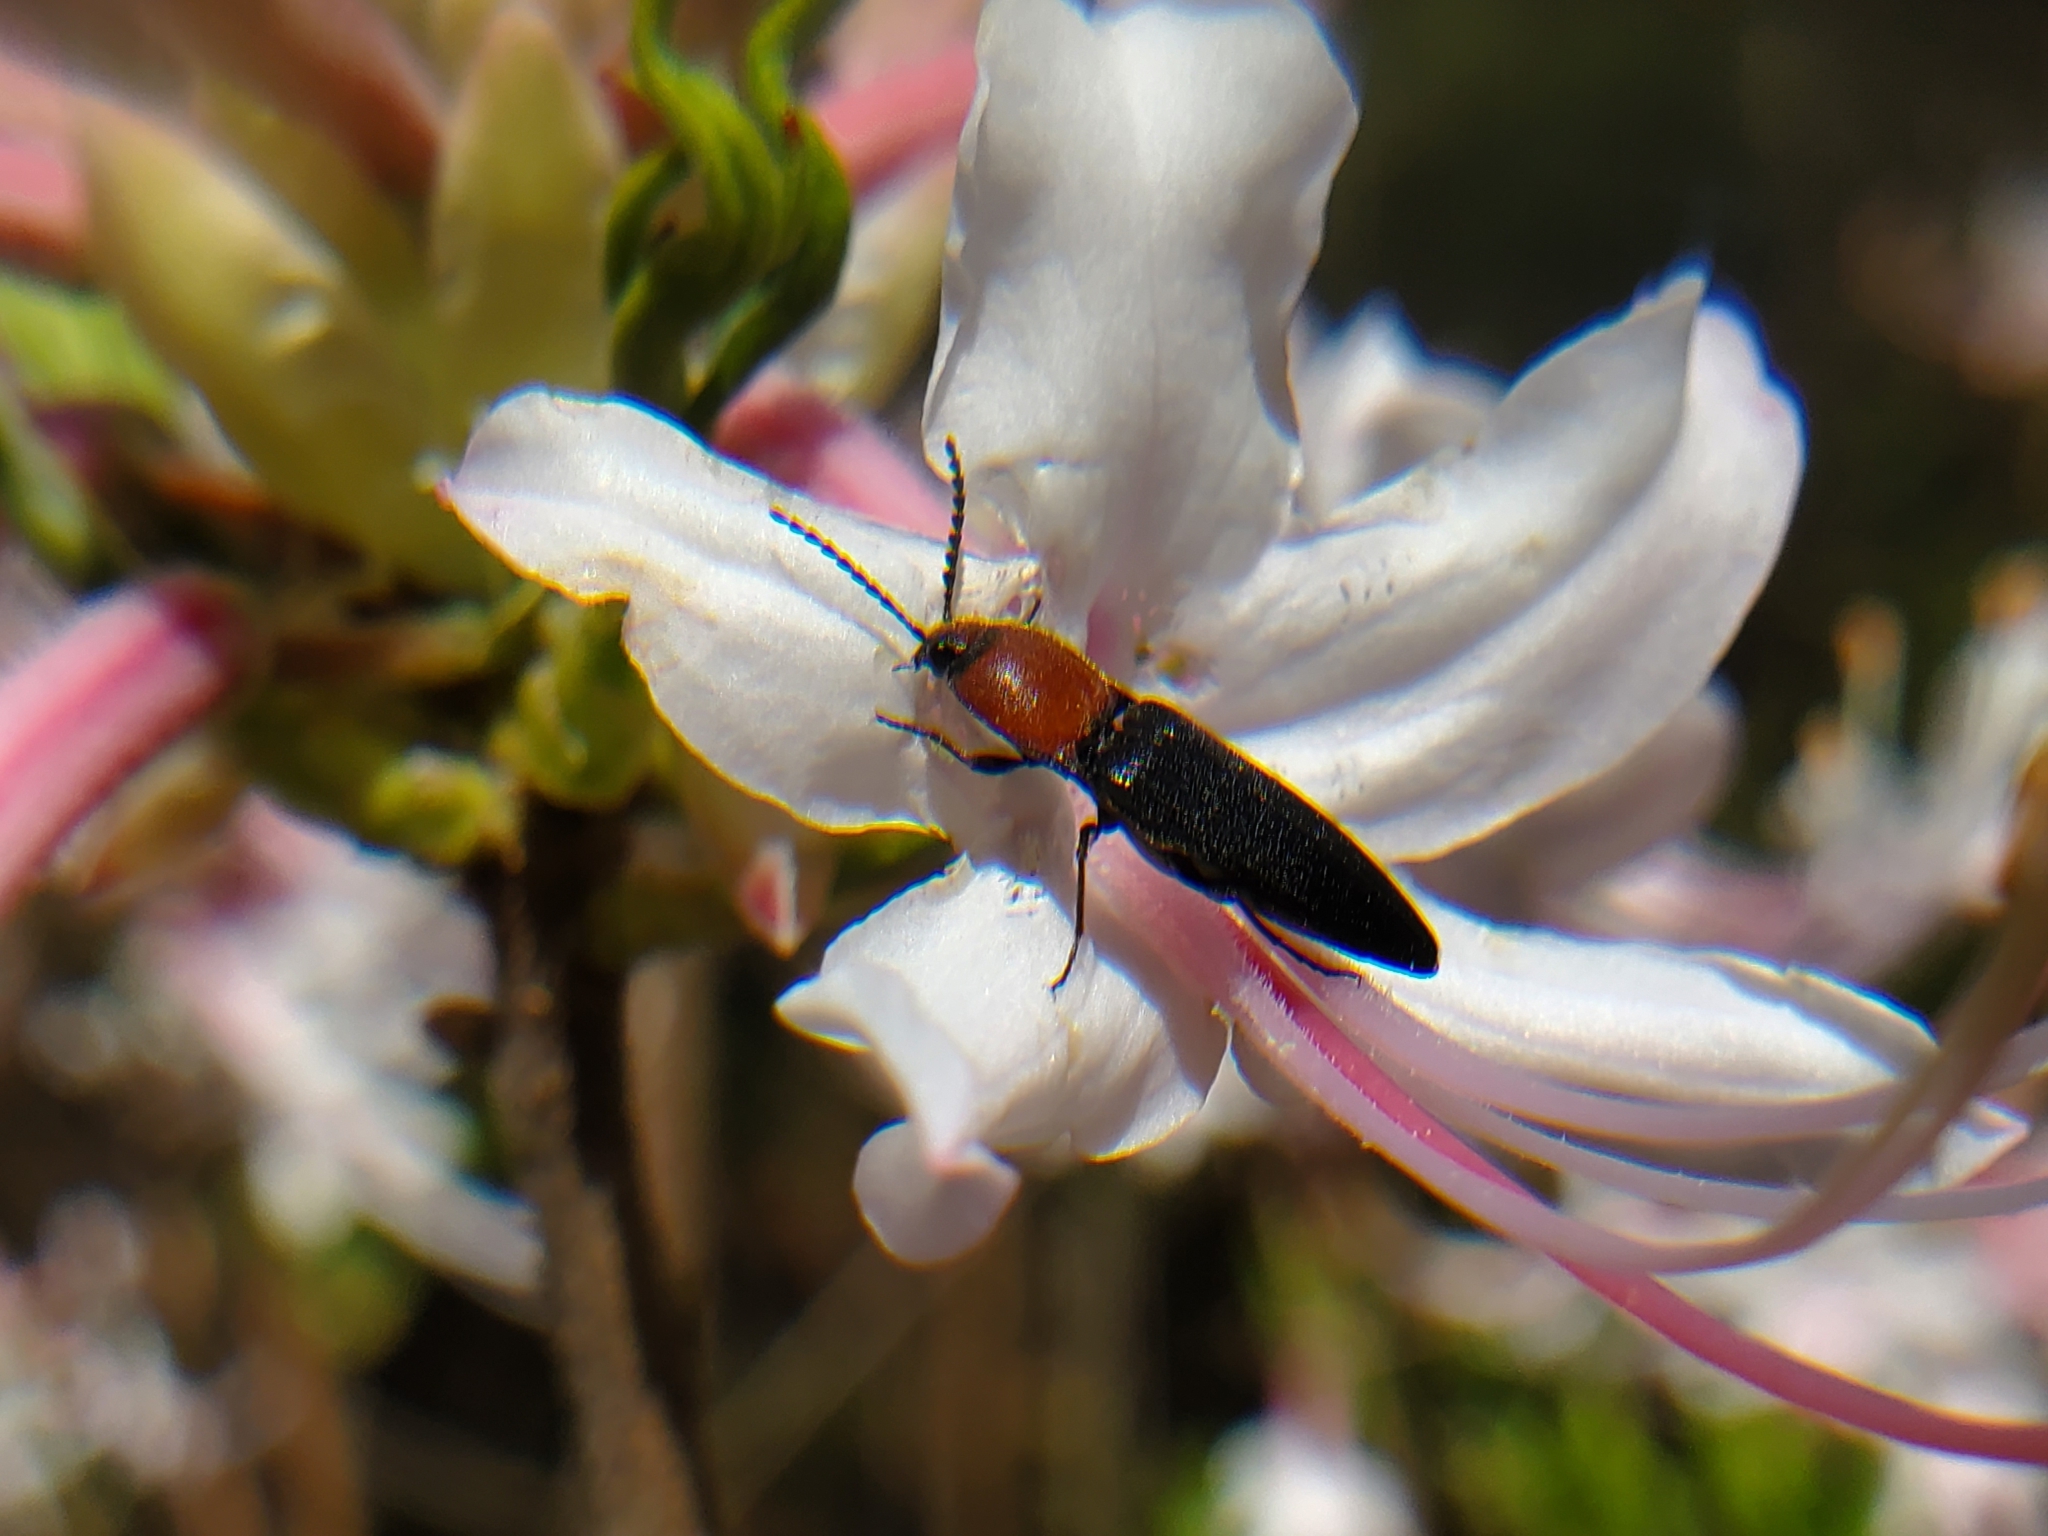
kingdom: Animalia
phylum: Arthropoda
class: Insecta
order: Coleoptera
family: Elateridae
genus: Ampedus
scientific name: Ampedus rubricollis
